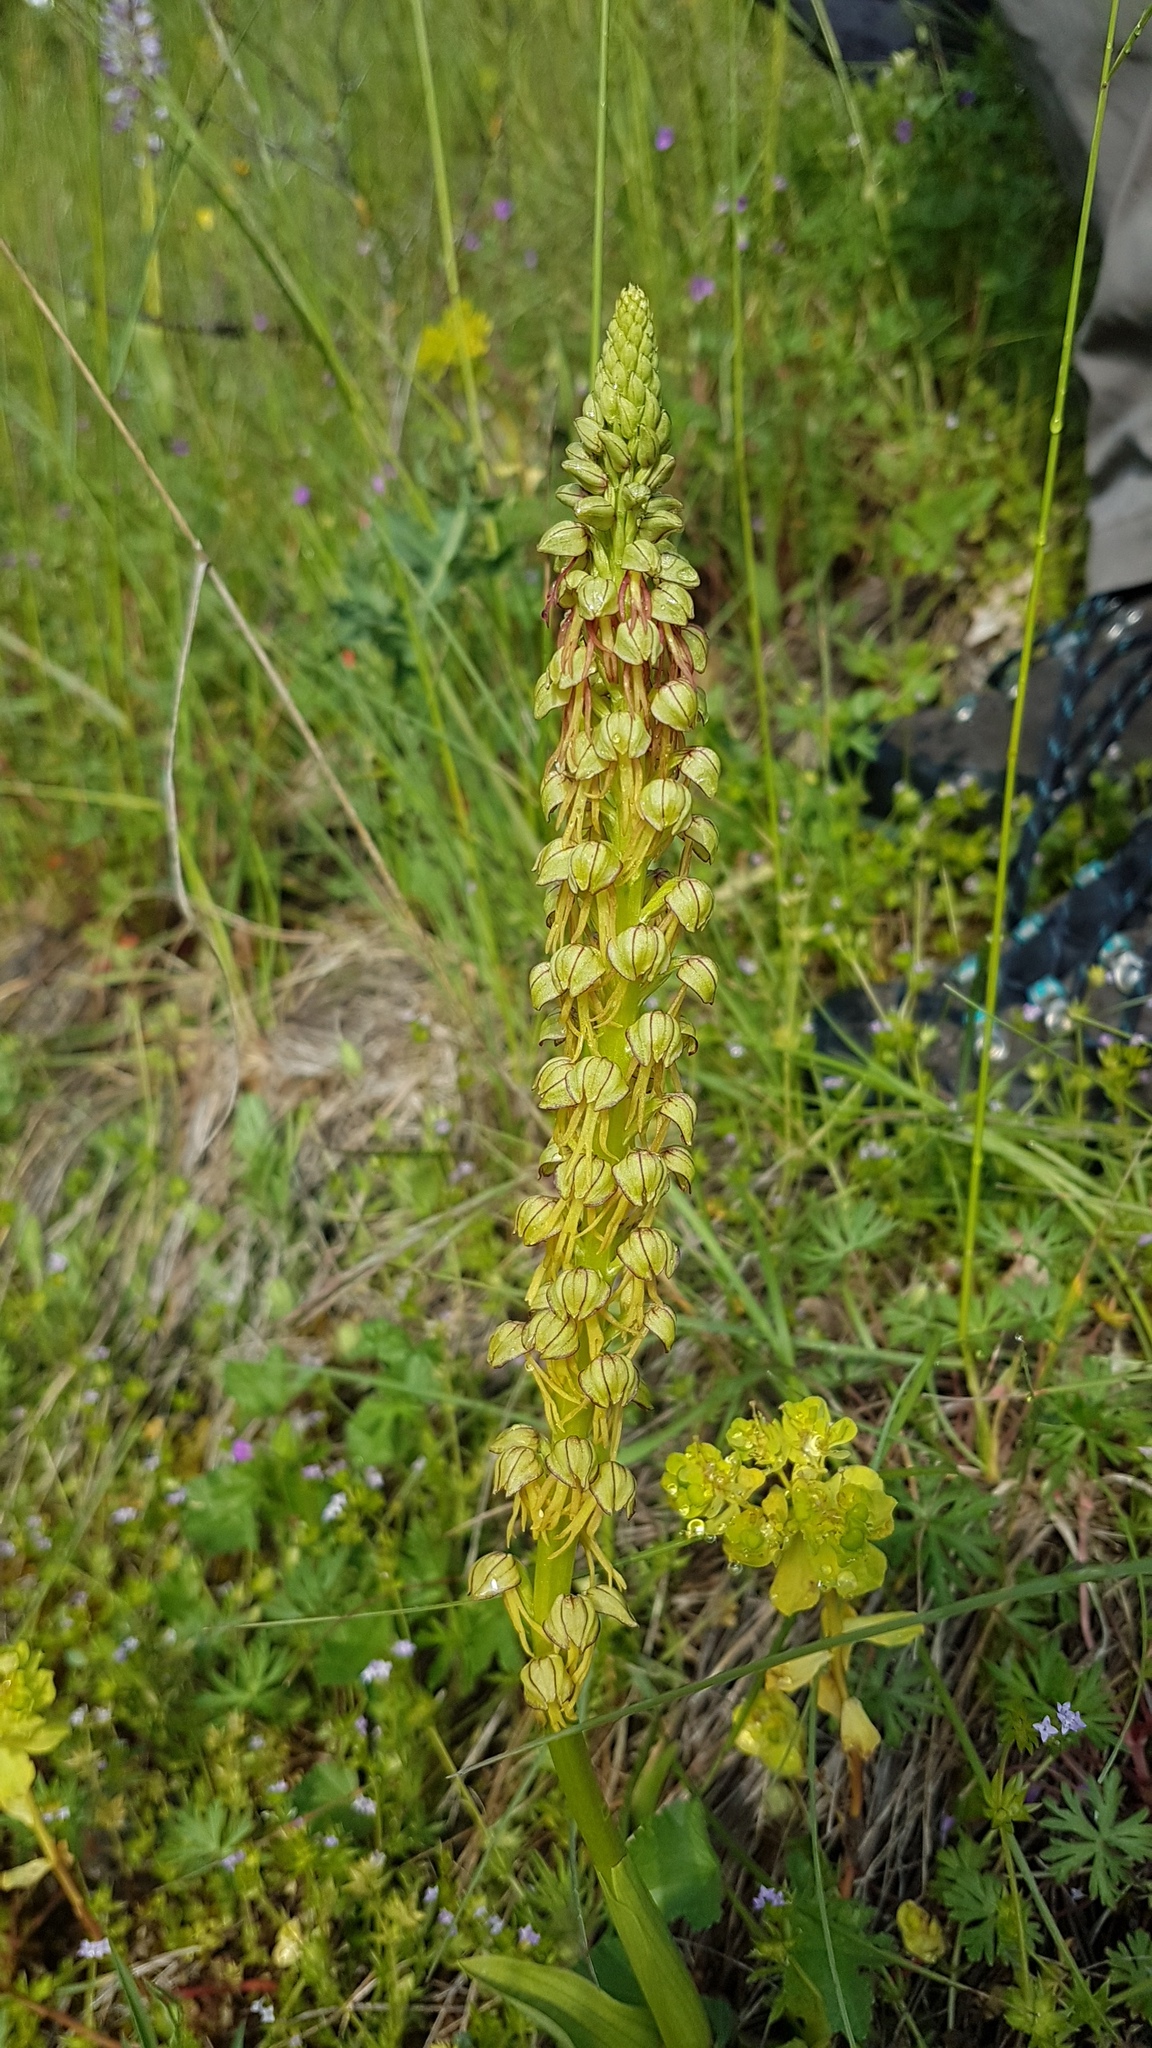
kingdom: Plantae
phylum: Tracheophyta
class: Liliopsida
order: Asparagales
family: Orchidaceae
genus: Orchis
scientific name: Orchis anthropophora
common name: Man orchid
